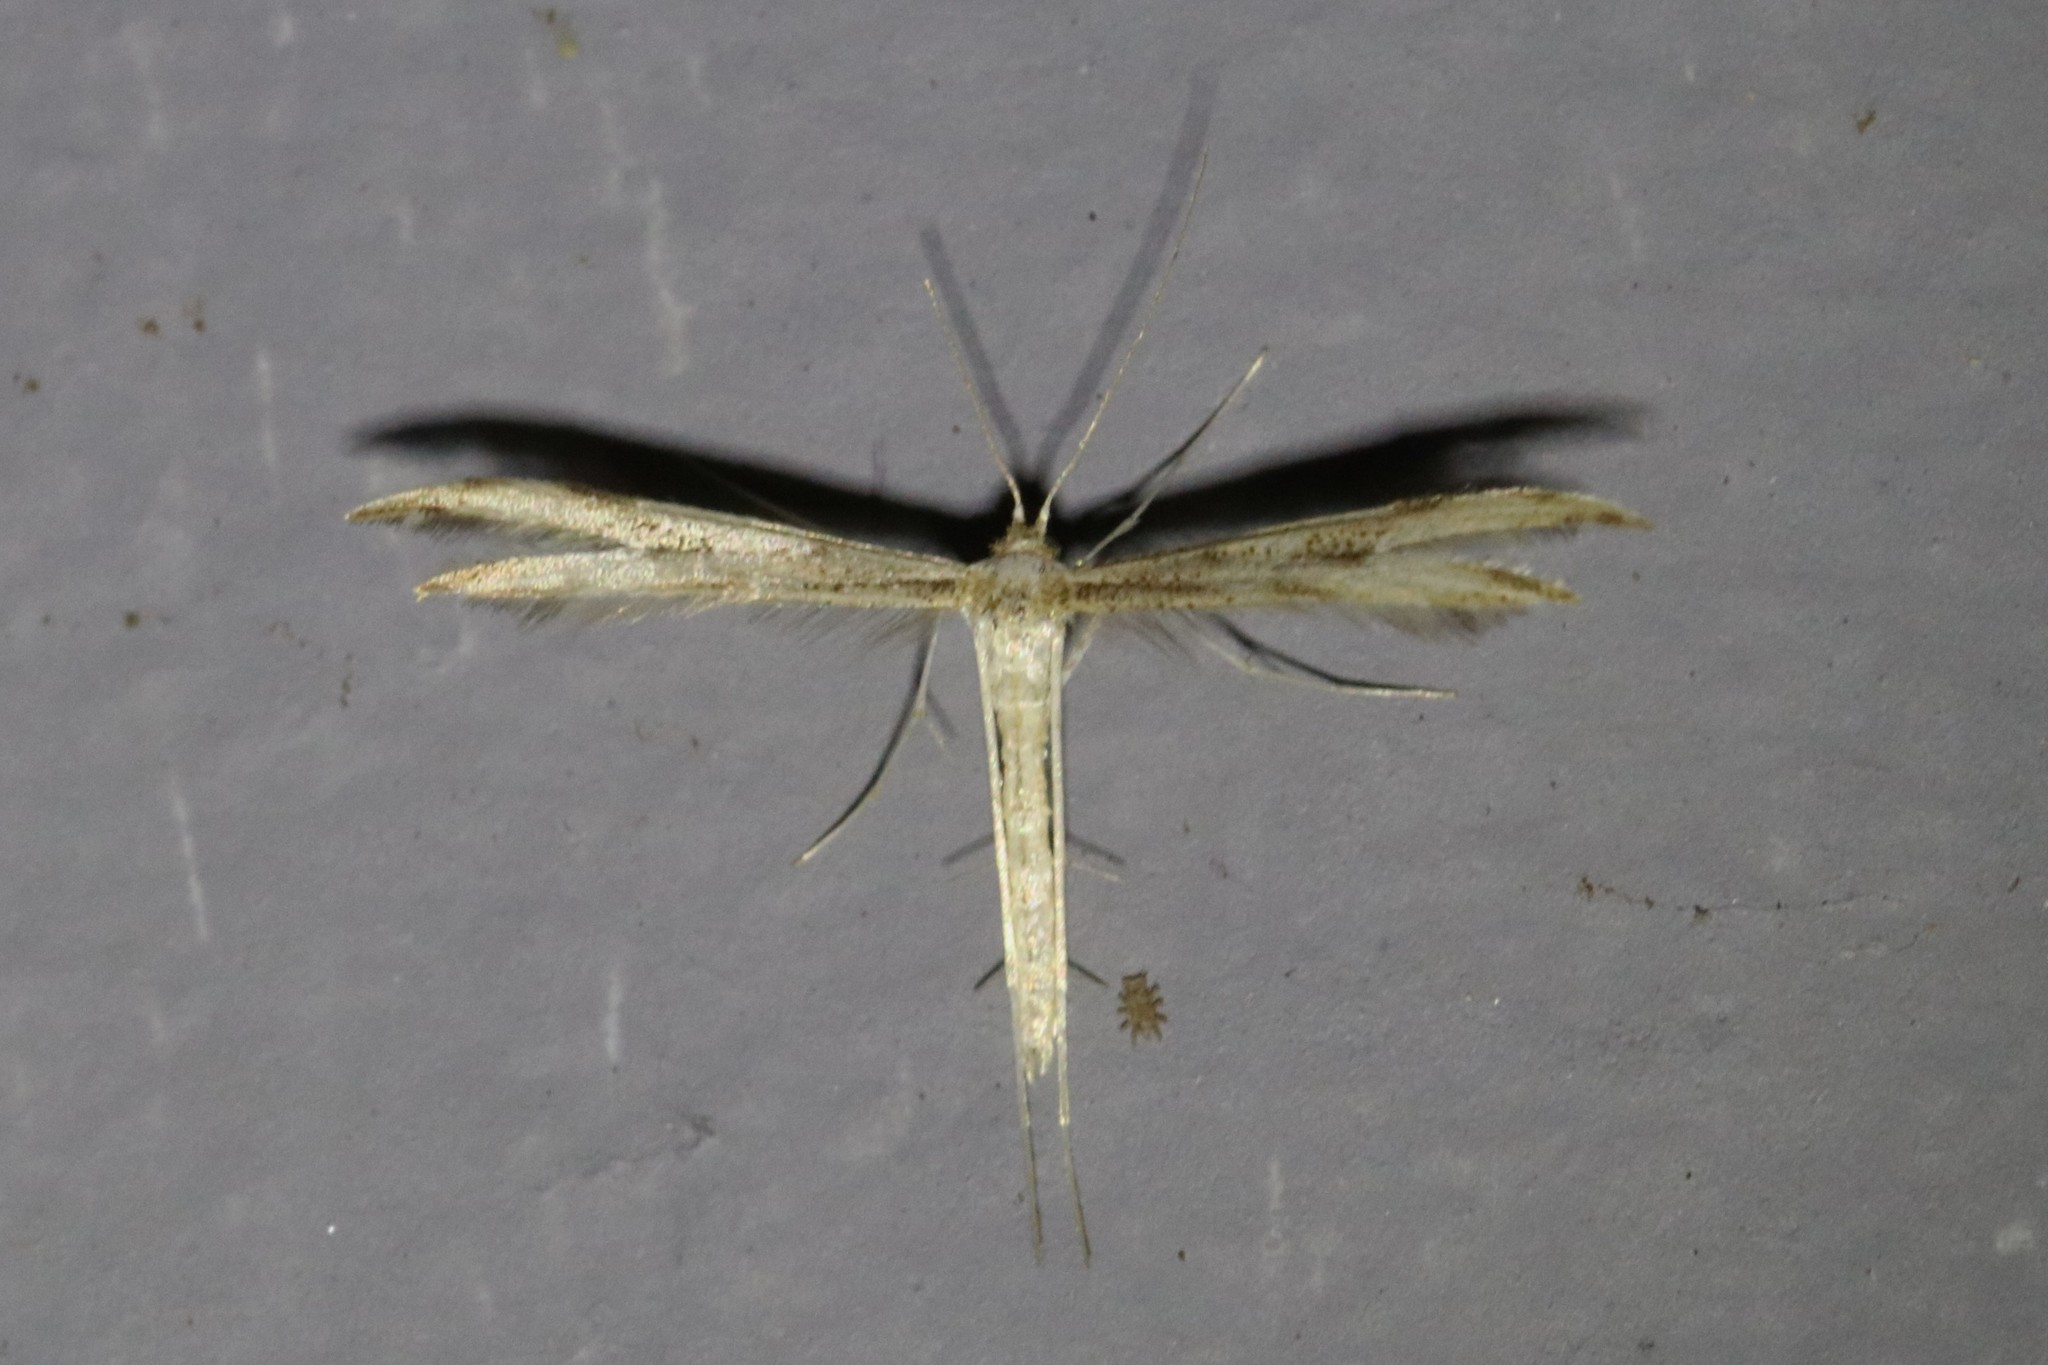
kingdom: Animalia
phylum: Arthropoda
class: Insecta
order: Lepidoptera
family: Pterophoridae
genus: Adaina
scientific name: Adaina montanus
